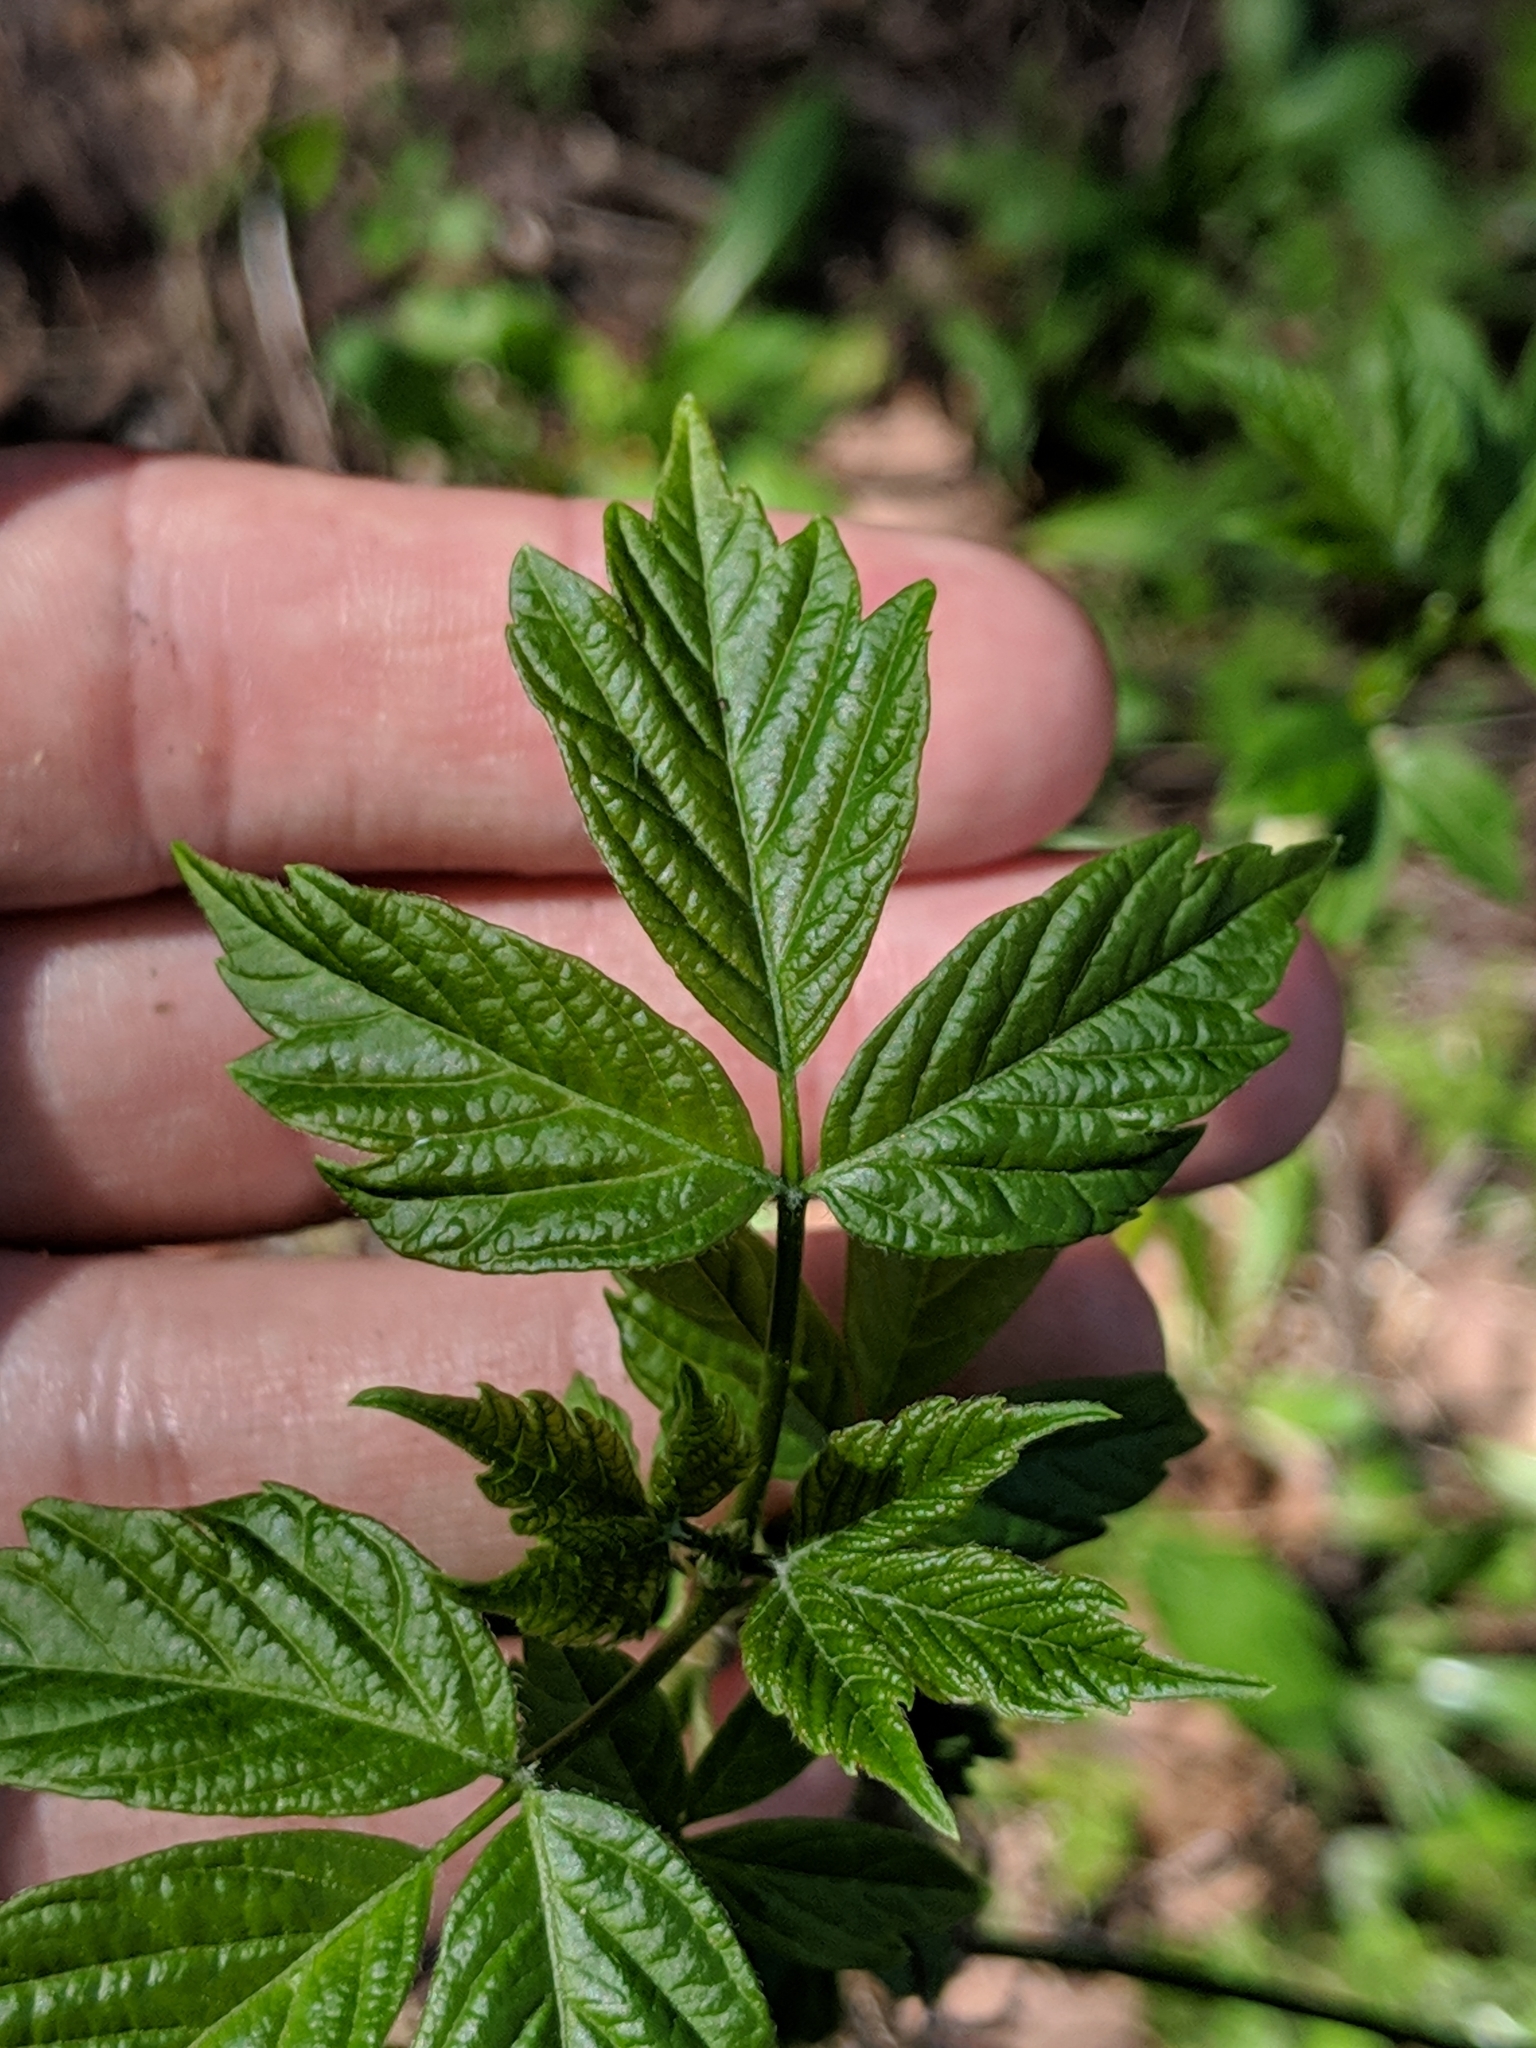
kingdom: Plantae
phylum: Tracheophyta
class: Magnoliopsida
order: Sapindales
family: Sapindaceae
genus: Acer
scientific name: Acer negundo
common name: Ashleaf maple
